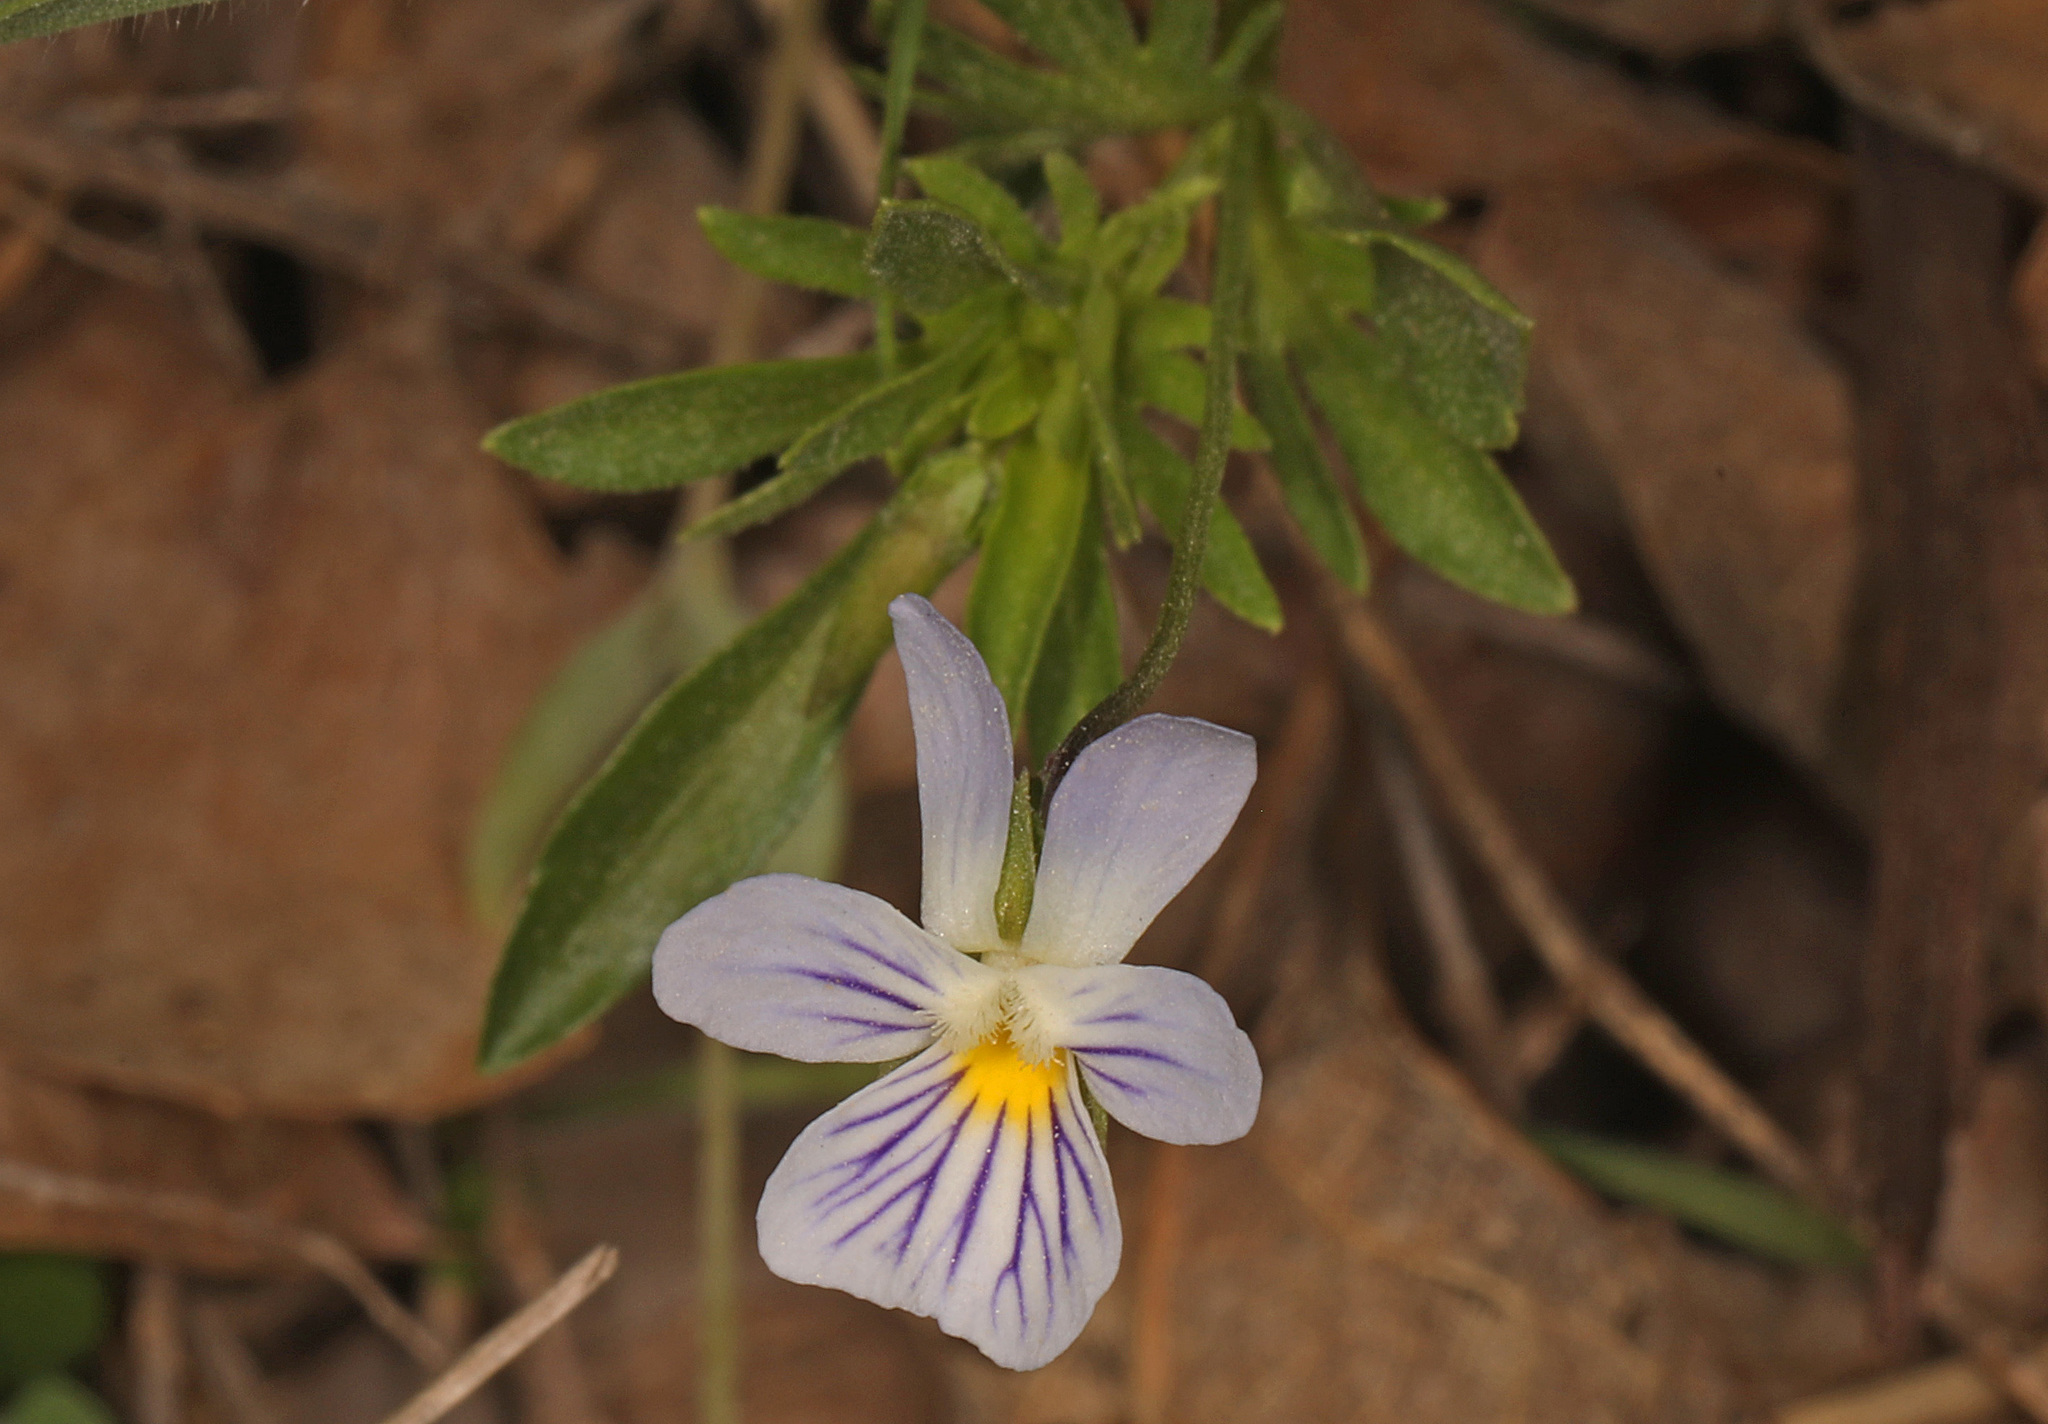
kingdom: Plantae
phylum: Tracheophyta
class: Magnoliopsida
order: Malpighiales
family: Violaceae
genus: Viola
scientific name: Viola rafinesquei
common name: American field pansy
